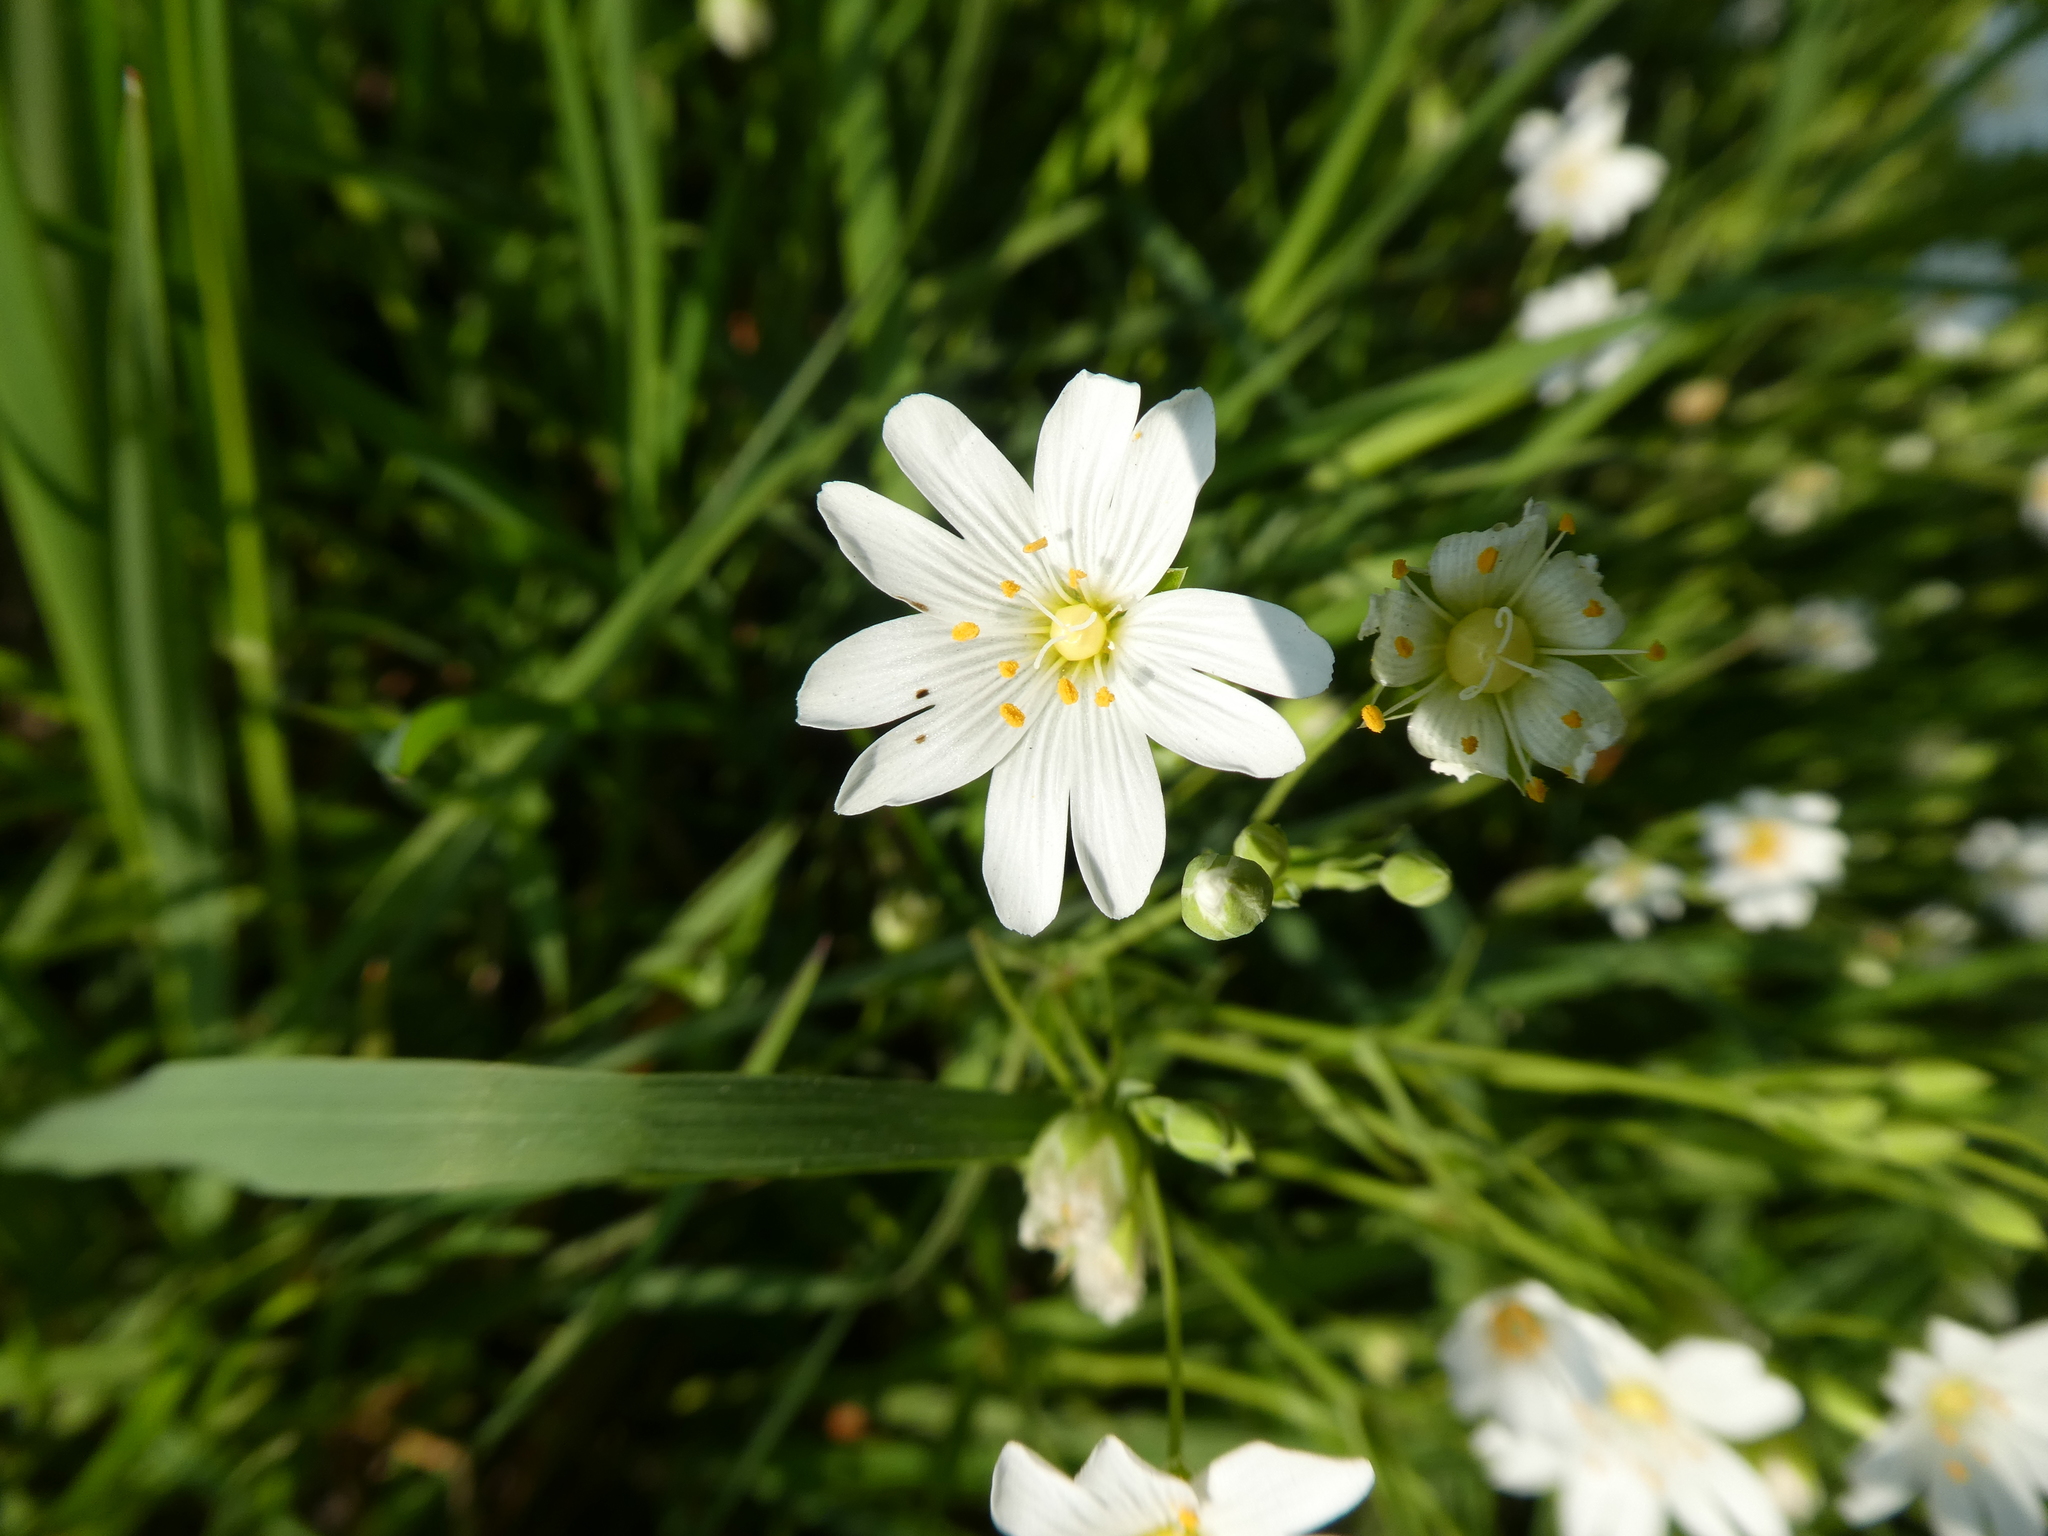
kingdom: Plantae
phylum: Tracheophyta
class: Magnoliopsida
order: Caryophyllales
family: Caryophyllaceae
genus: Rabelera
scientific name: Rabelera holostea
